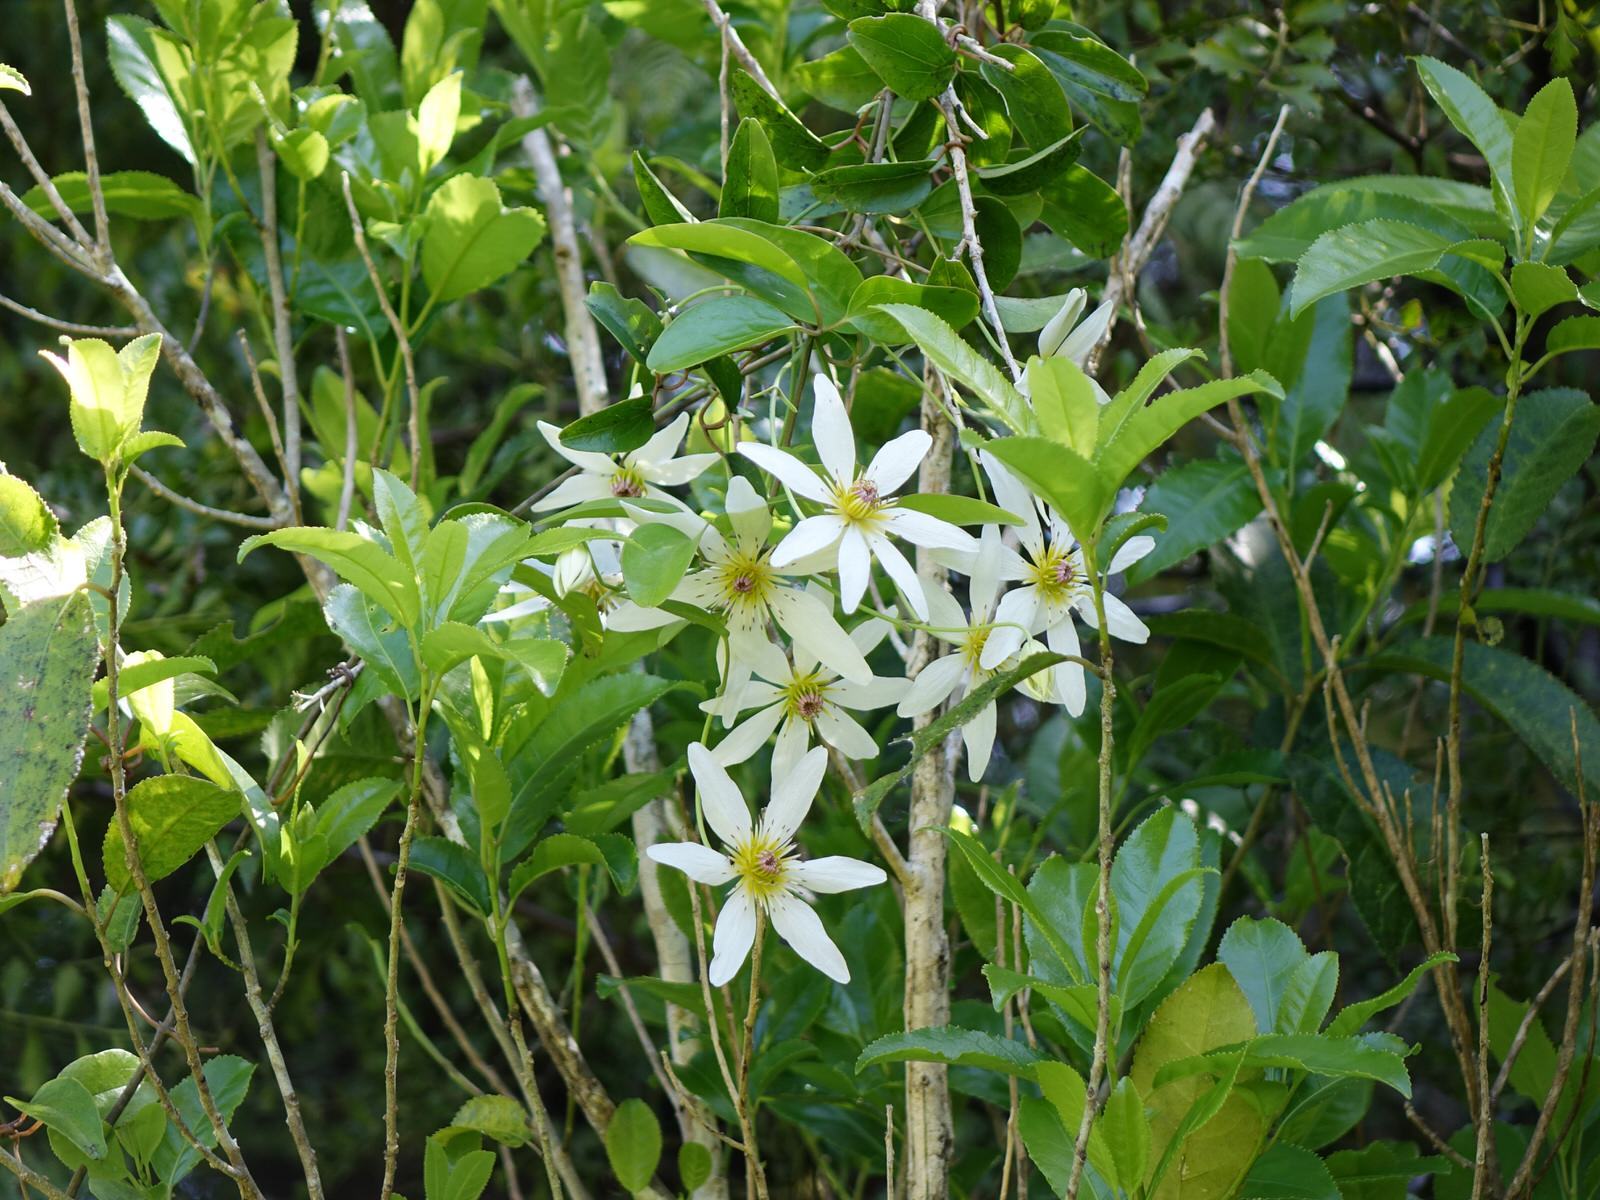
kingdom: Plantae
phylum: Tracheophyta
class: Magnoliopsida
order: Ranunculales
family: Ranunculaceae
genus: Clematis
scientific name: Clematis paniculata
